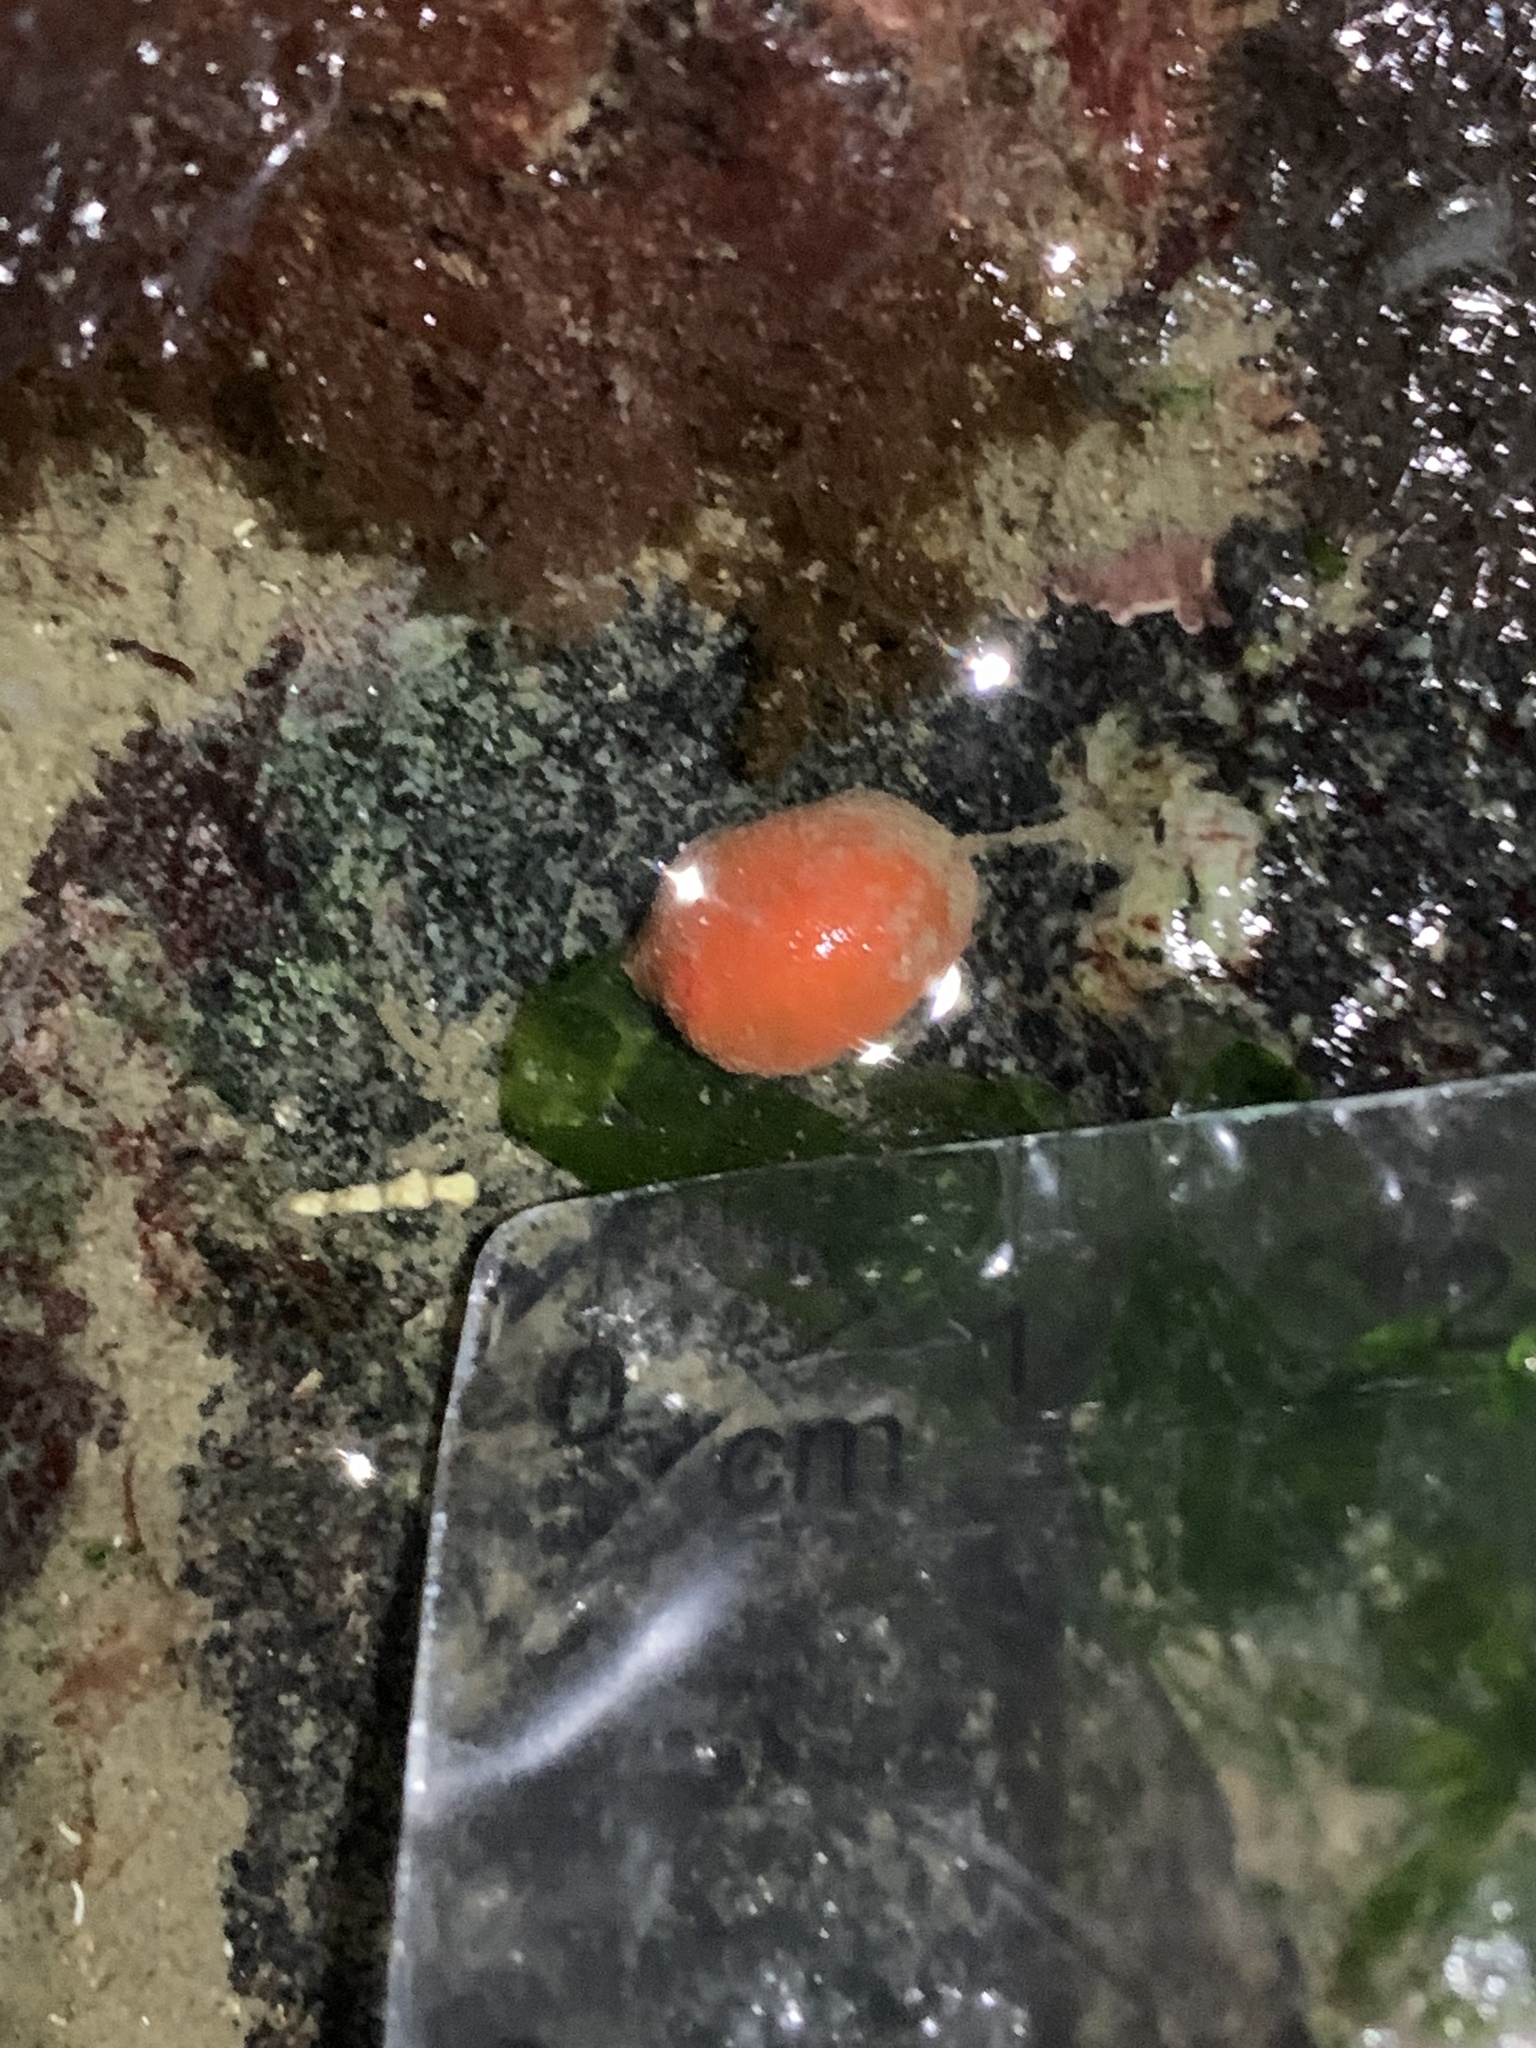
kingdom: Animalia
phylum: Mollusca
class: Gastropoda
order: Nudibranchia
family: Discodorididae
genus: Rostanga
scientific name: Rostanga pulchra
